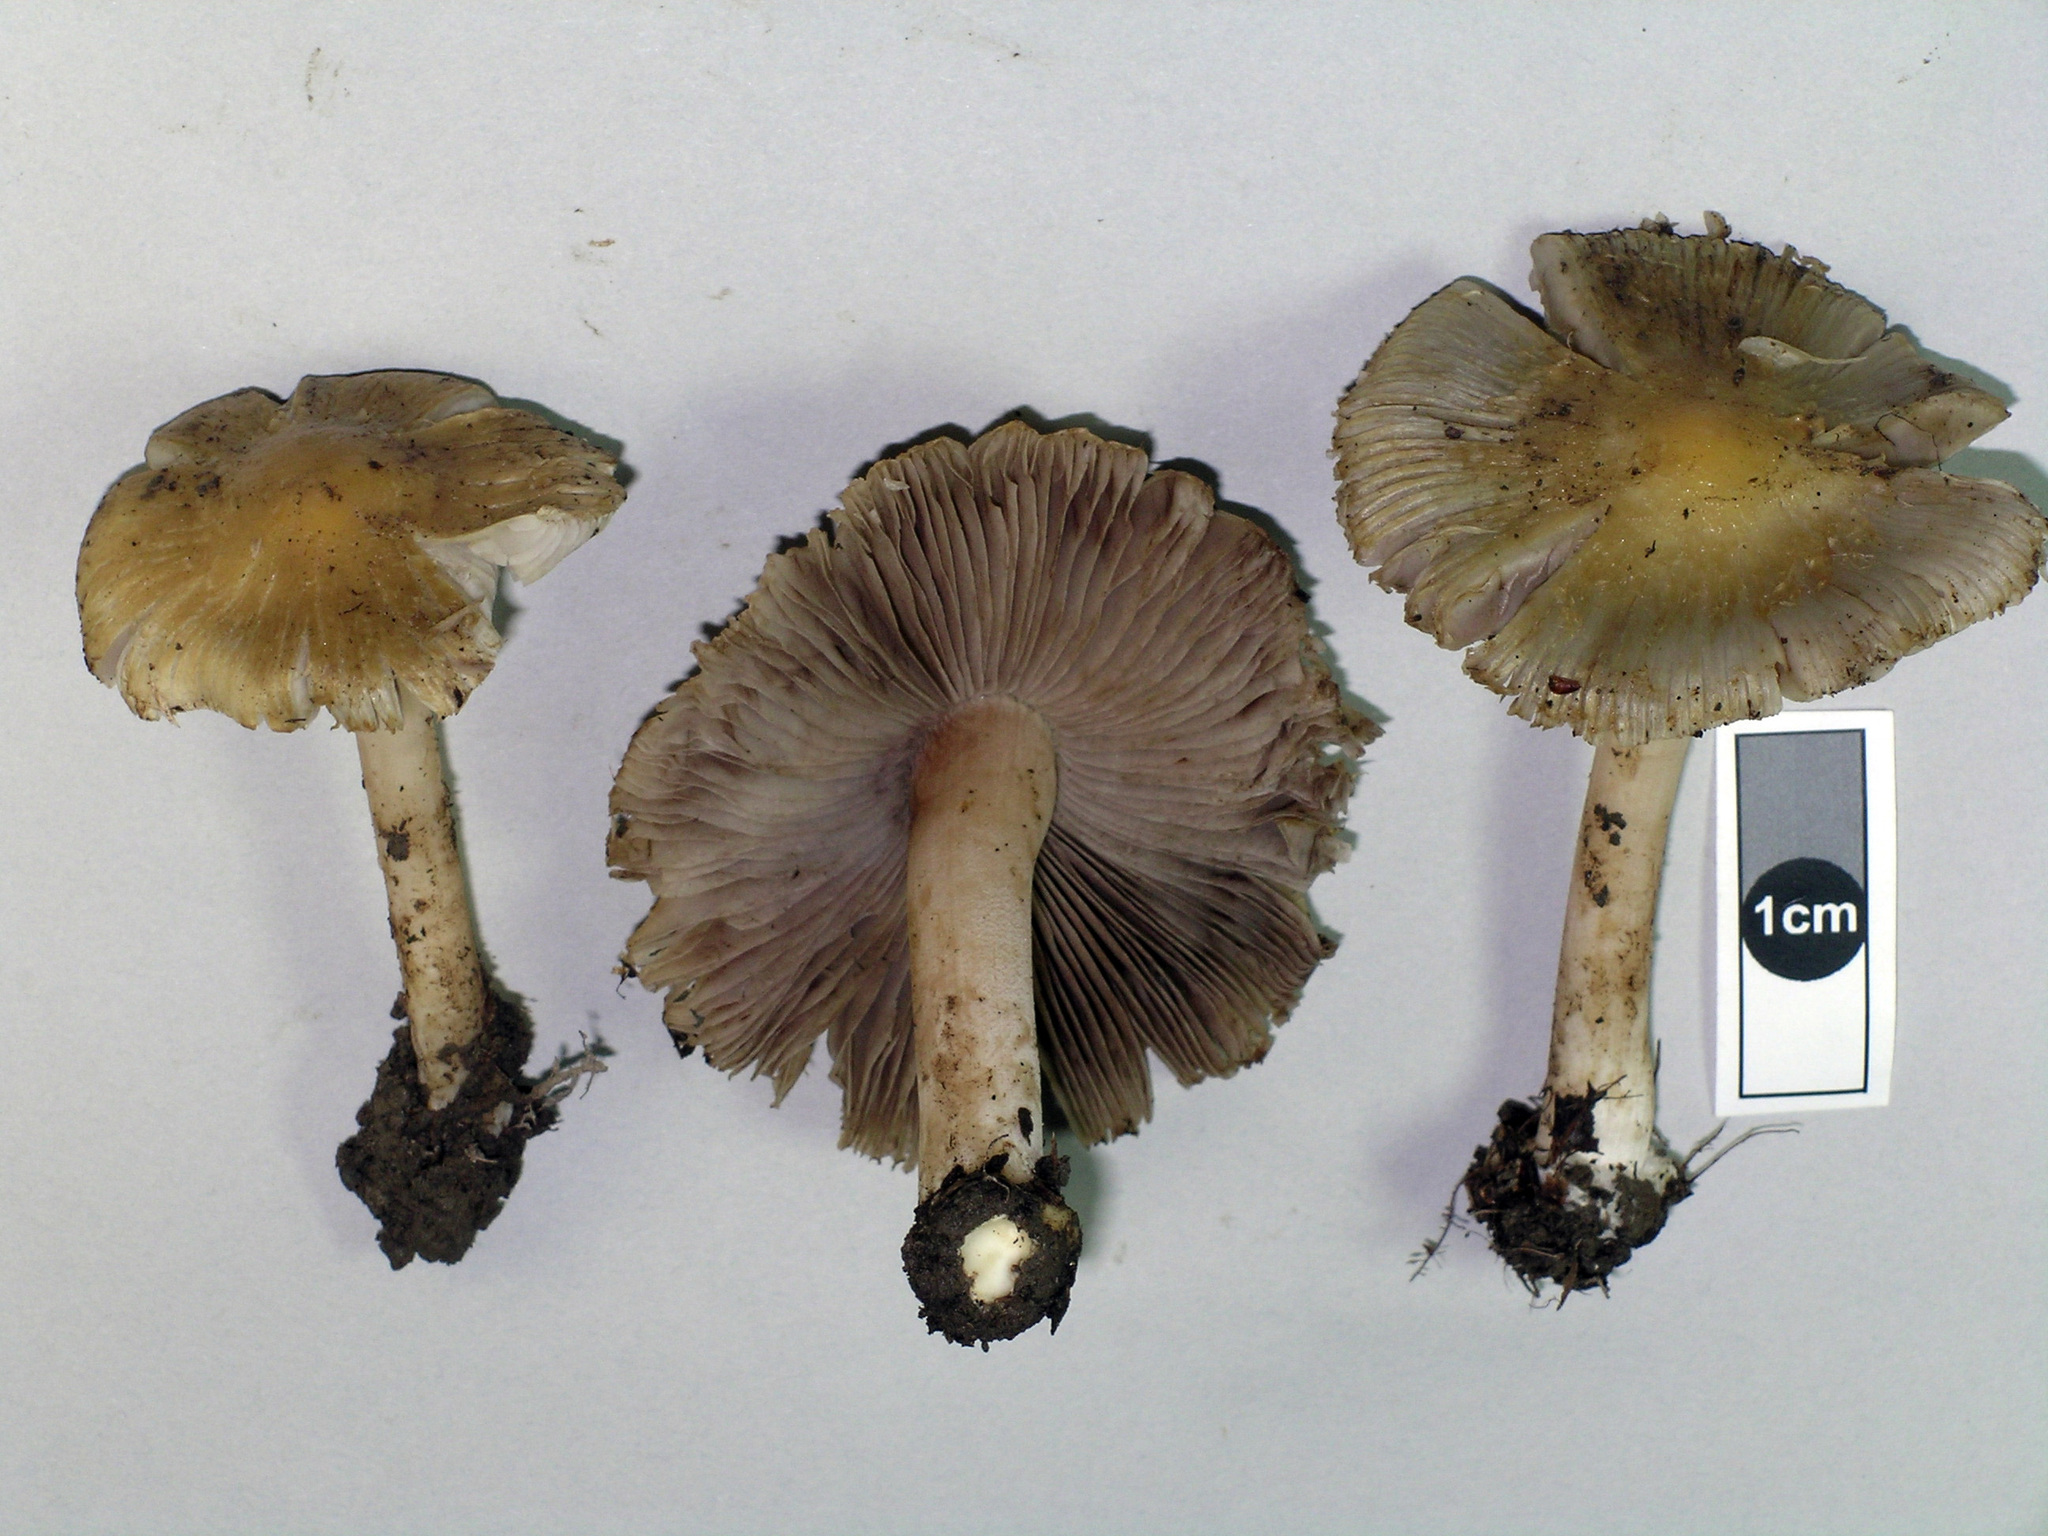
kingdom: Fungi
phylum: Basidiomycota
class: Agaricomycetes
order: Agaricales
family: Inocybaceae
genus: Inocybe
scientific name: Inocybe horakomyces
